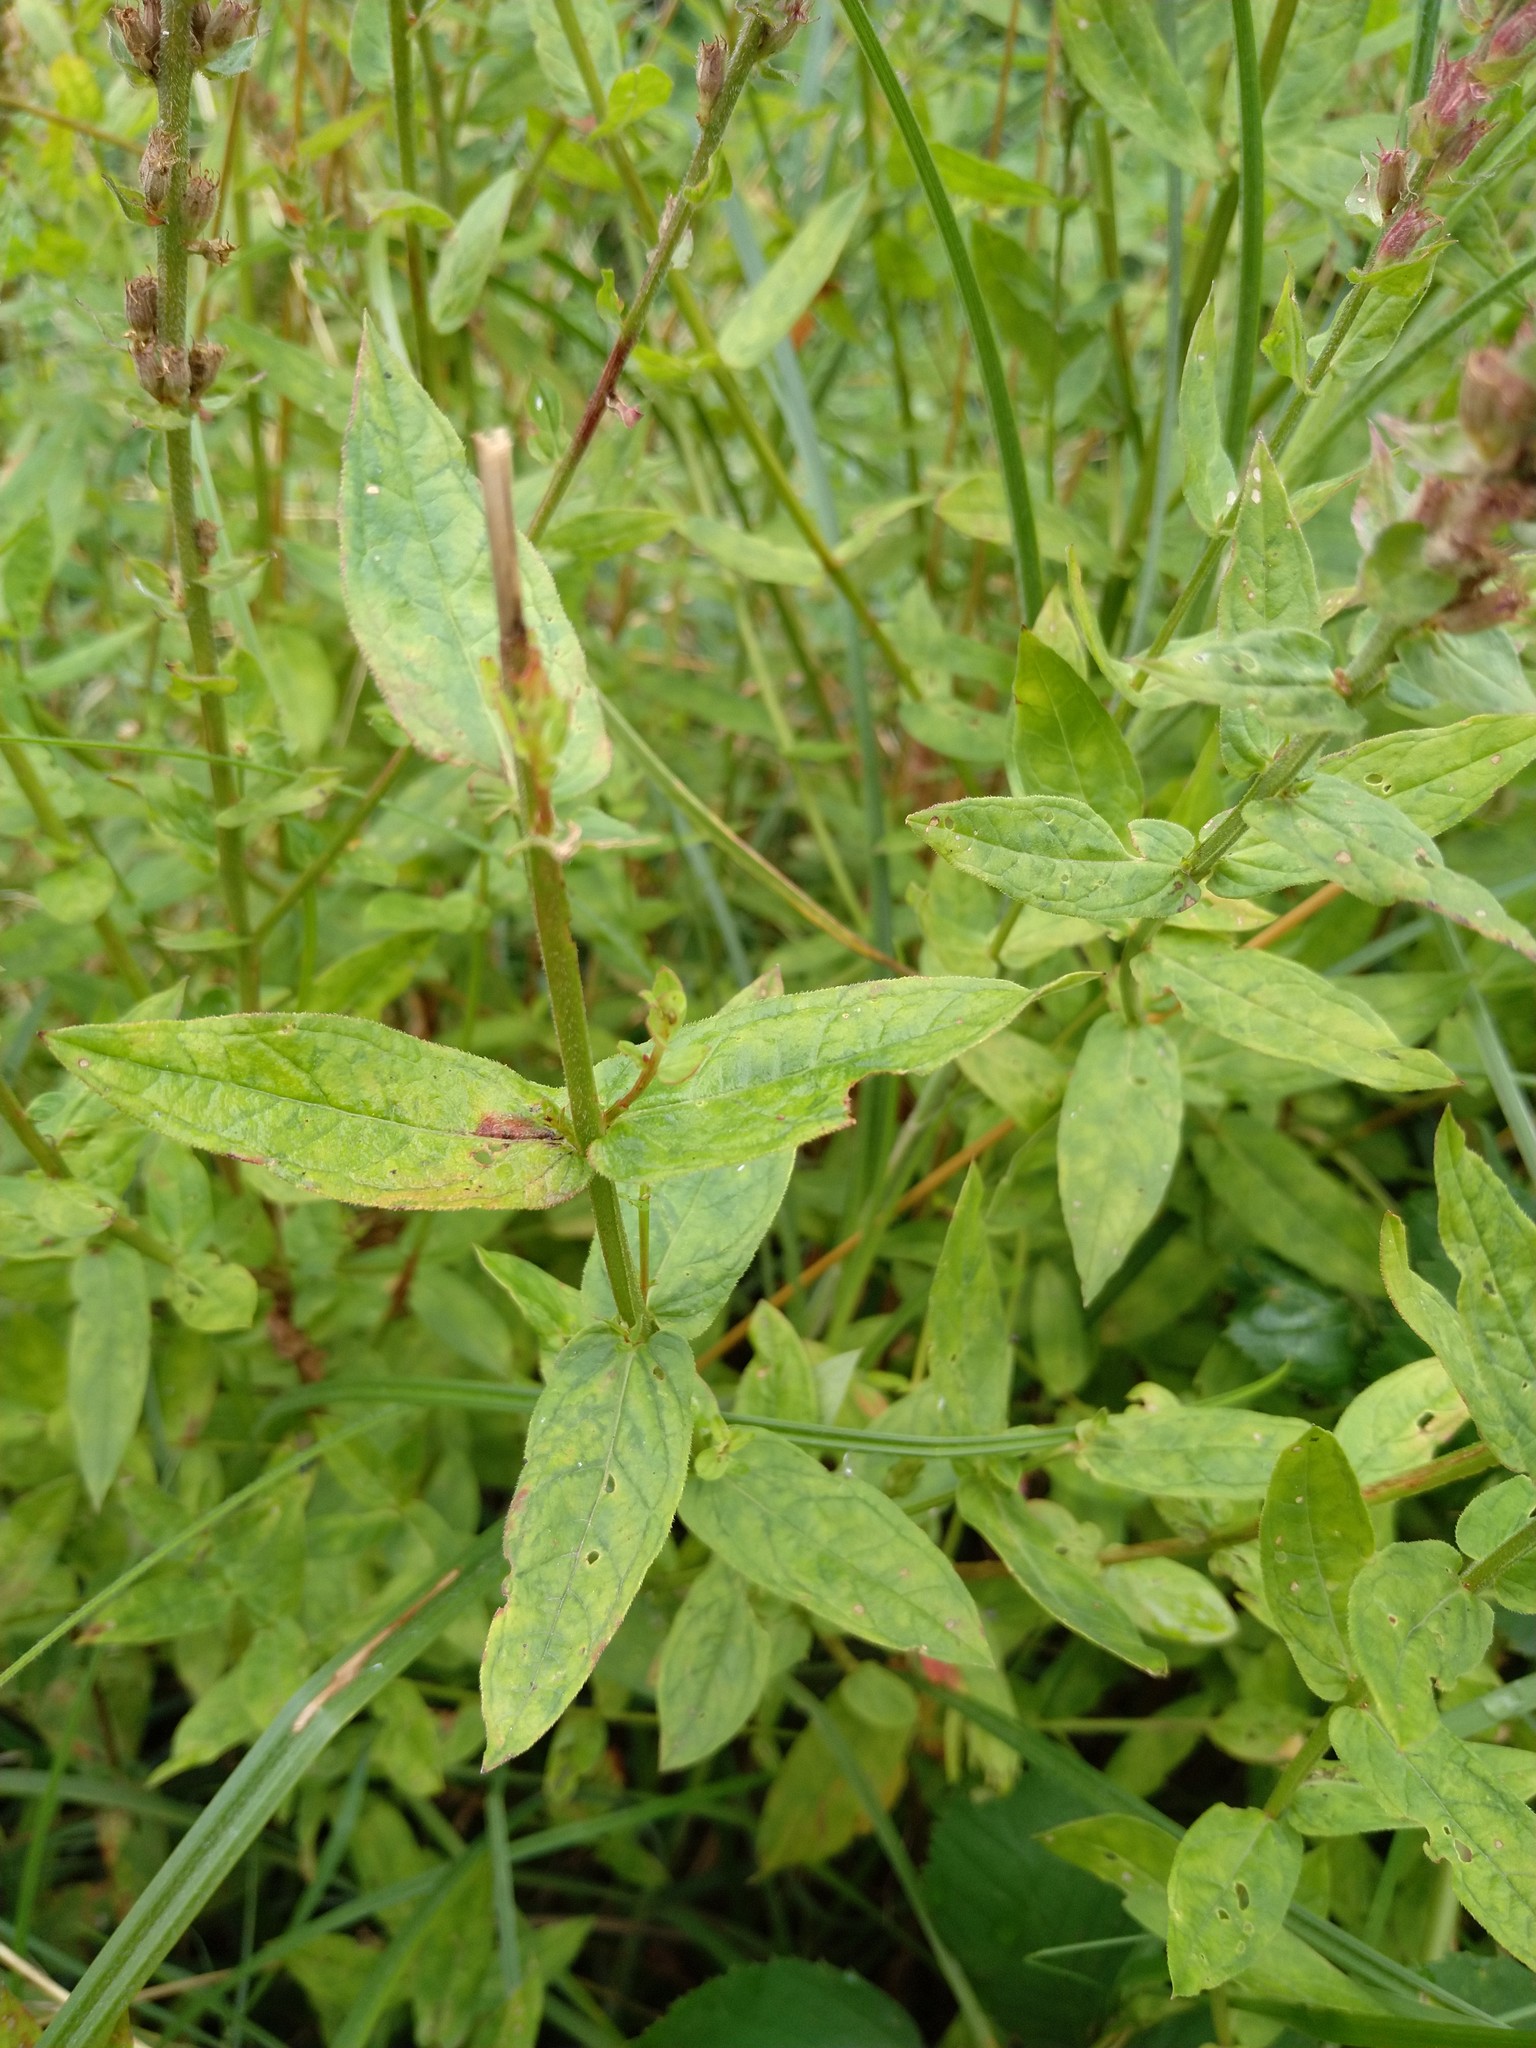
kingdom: Plantae
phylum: Tracheophyta
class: Magnoliopsida
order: Myrtales
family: Lythraceae
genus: Lythrum
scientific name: Lythrum salicaria
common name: Purple loosestrife
